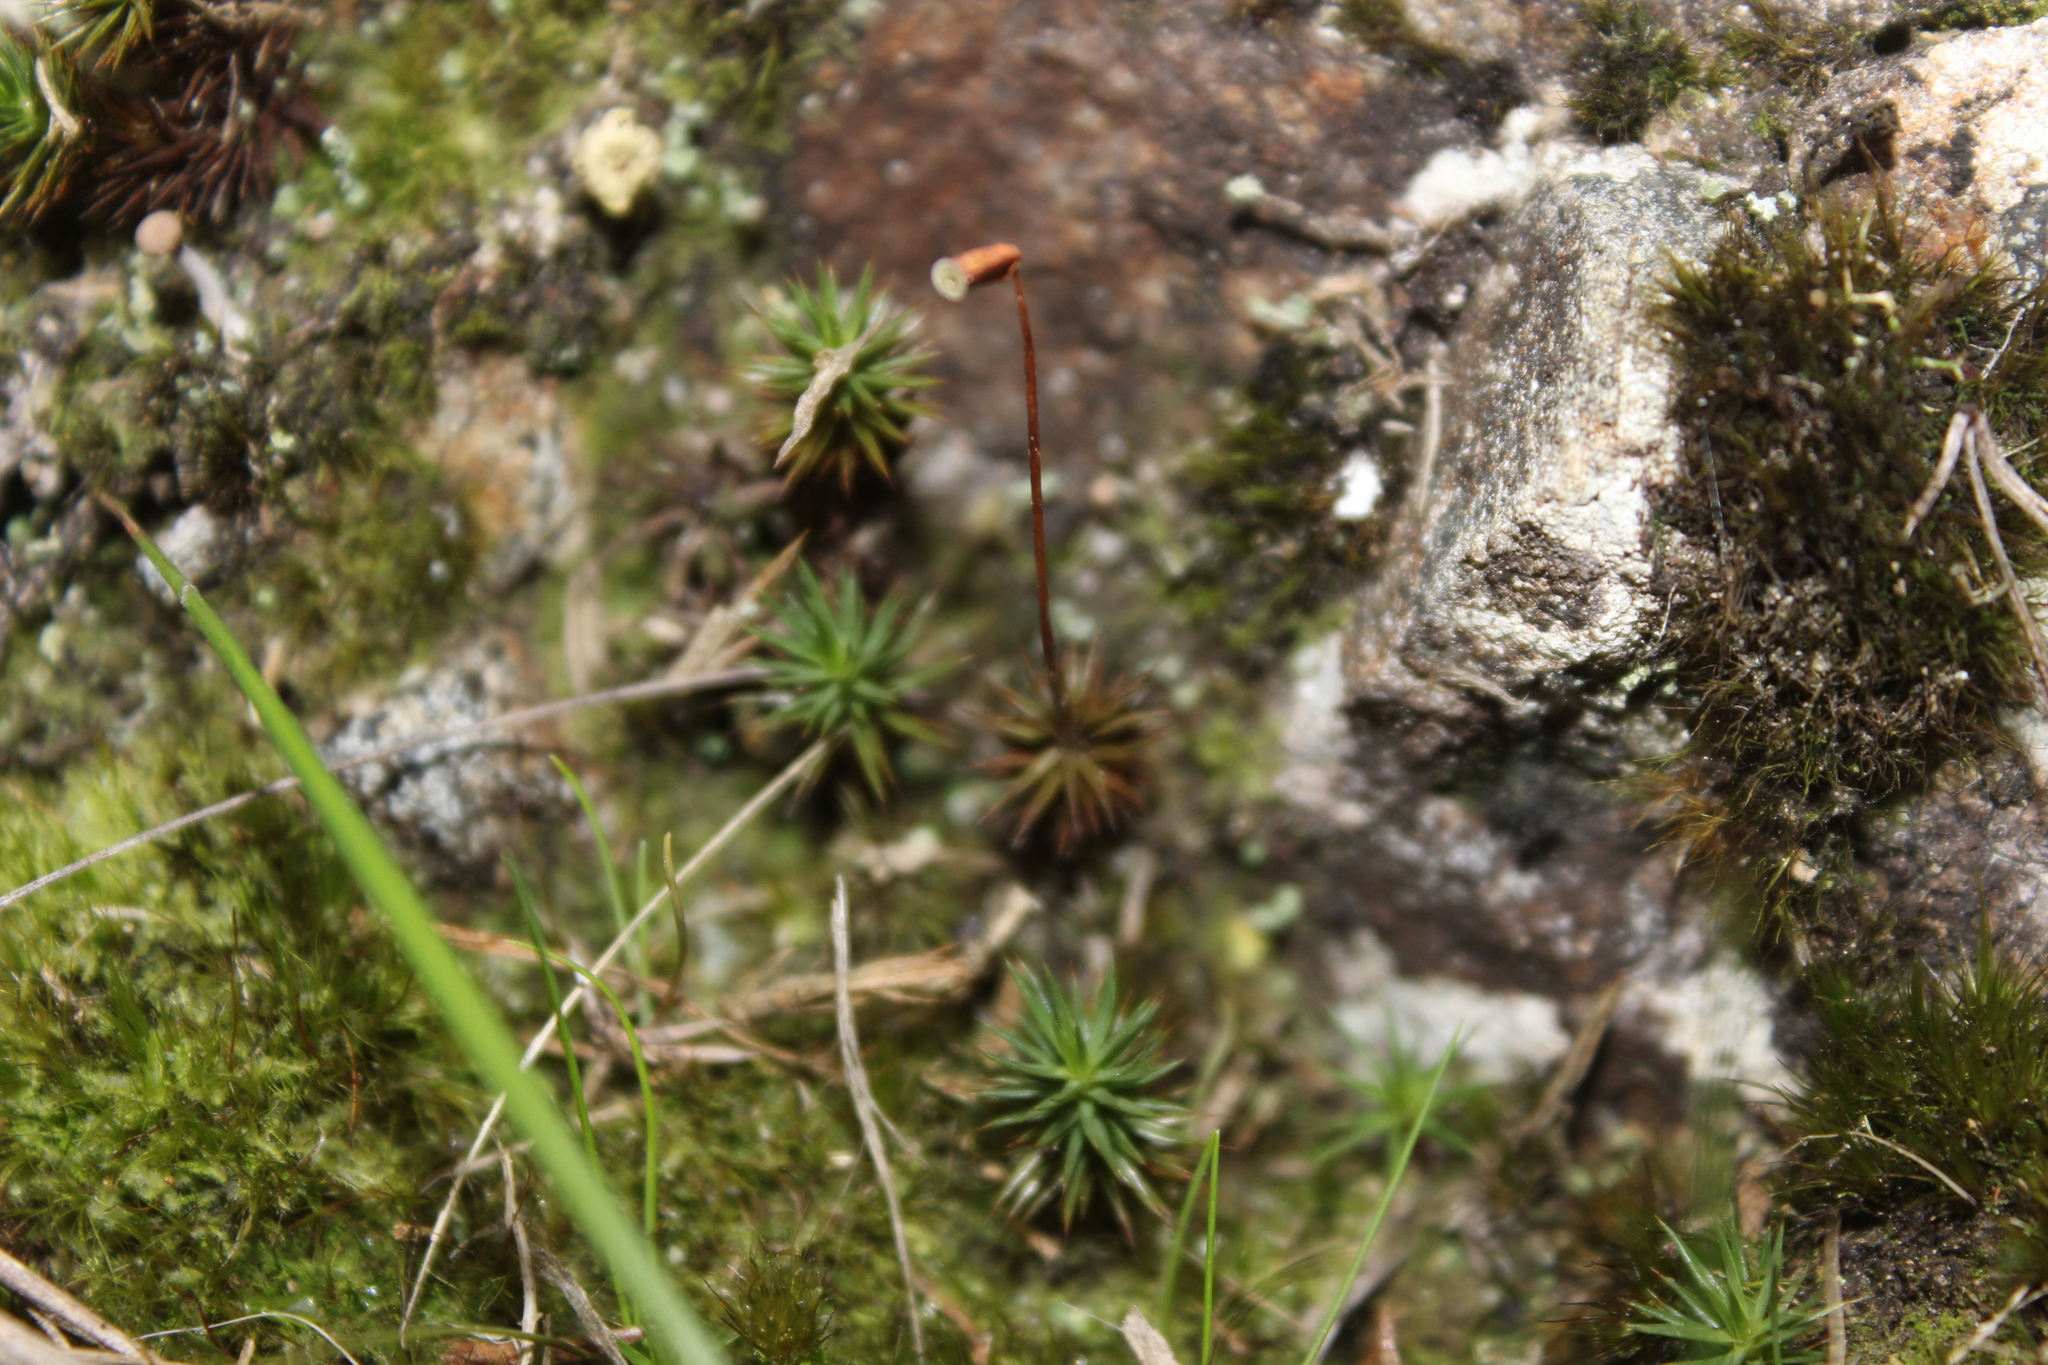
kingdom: Plantae
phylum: Bryophyta
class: Polytrichopsida
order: Polytrichales
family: Polytrichaceae
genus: Polytrichum
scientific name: Polytrichum juniperinum
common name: Juniper haircap moss
